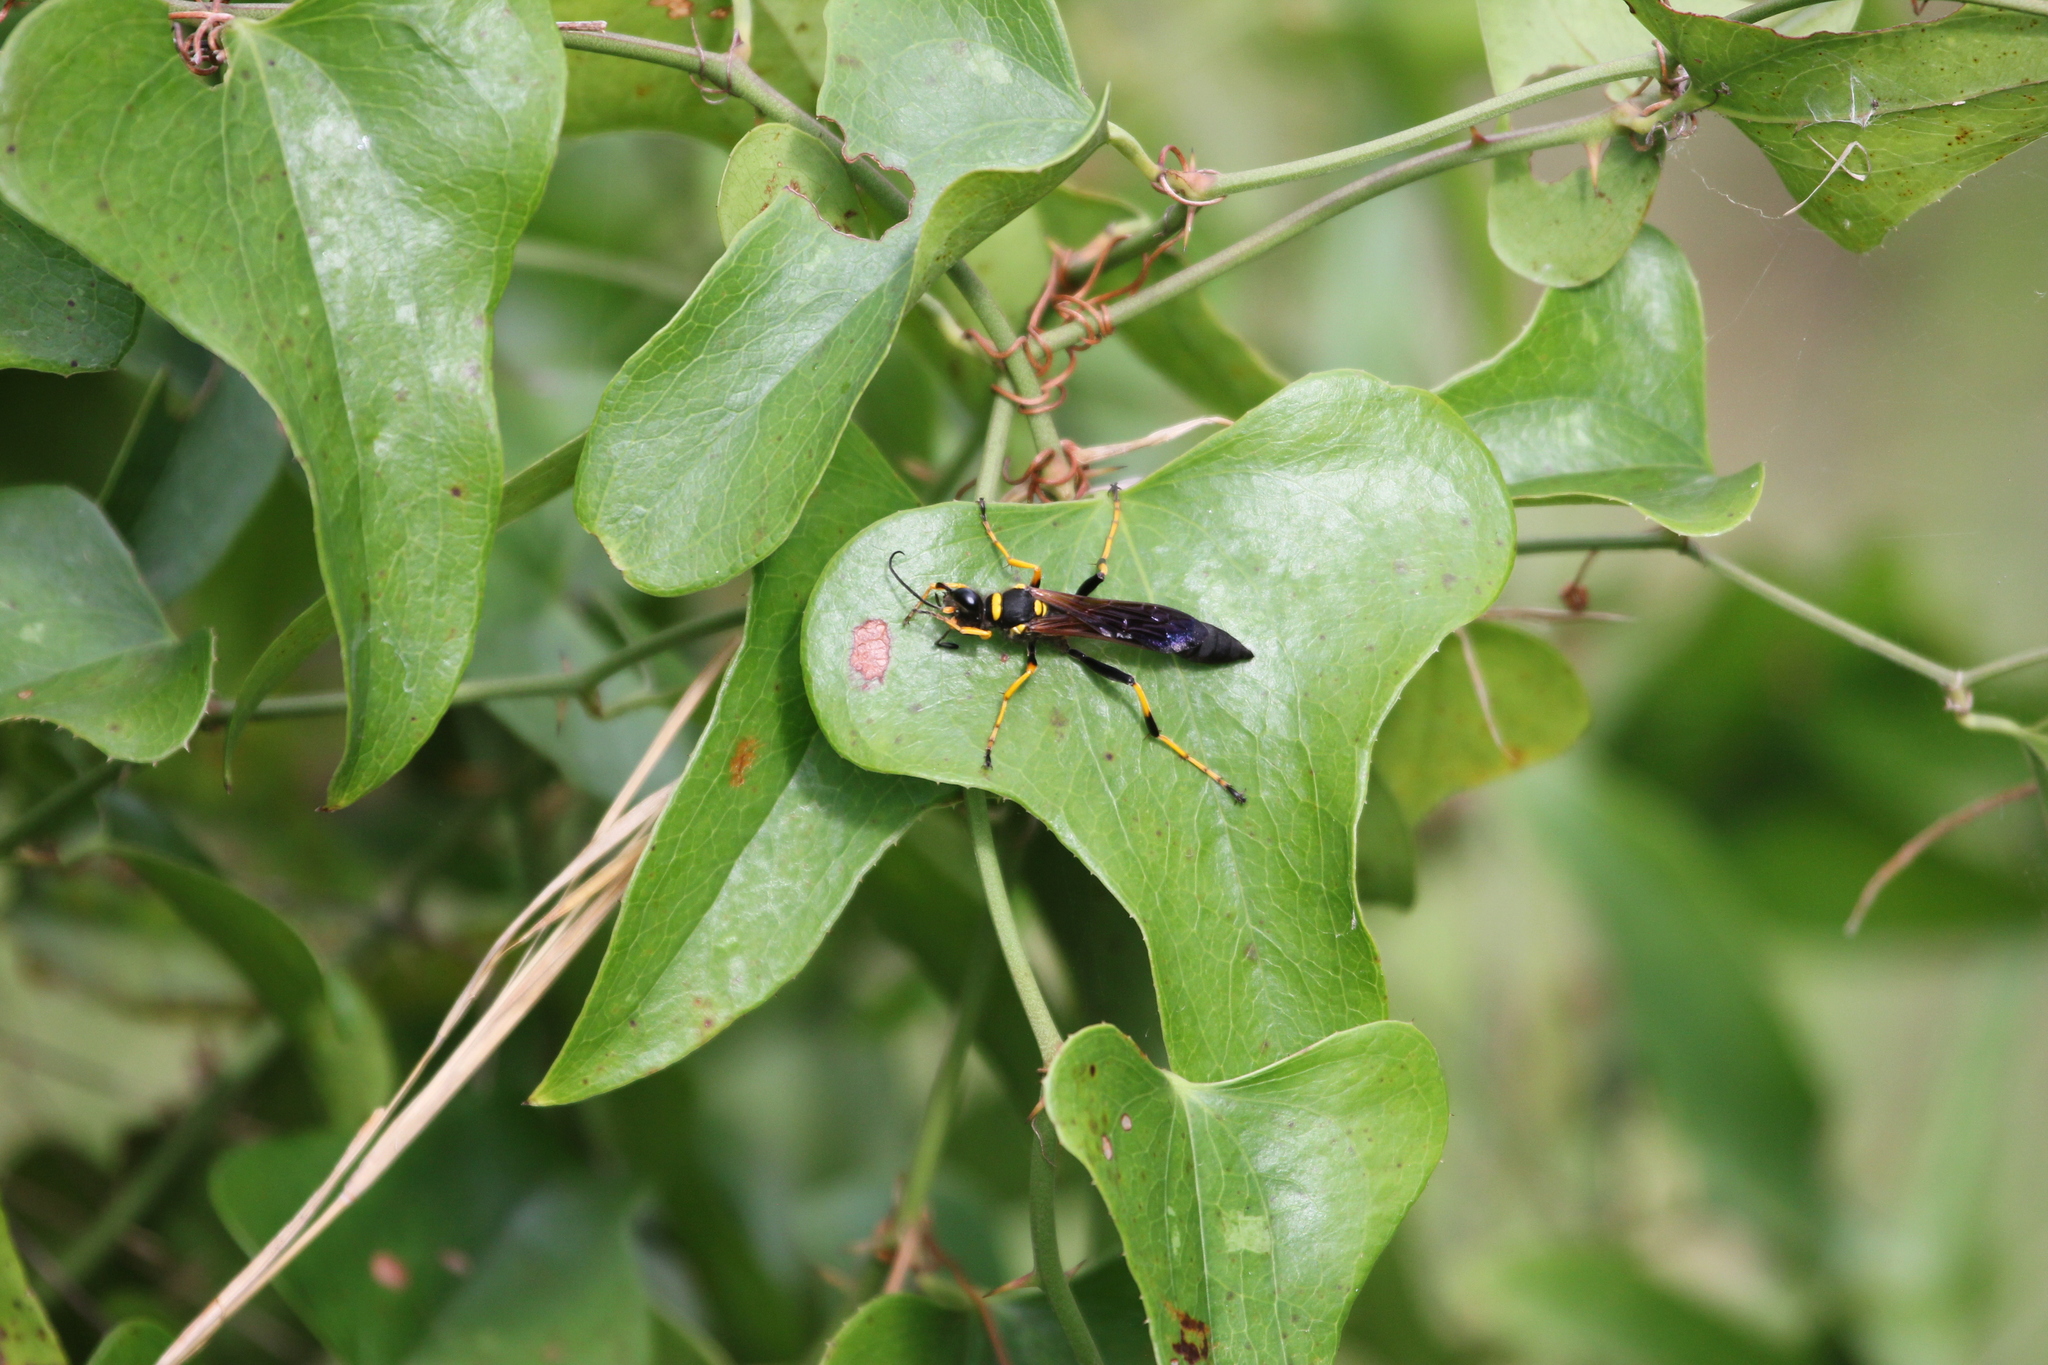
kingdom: Animalia
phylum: Arthropoda
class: Insecta
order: Hymenoptera
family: Sphecidae
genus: Sceliphron
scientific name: Sceliphron caementarium
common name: Mud dauber
